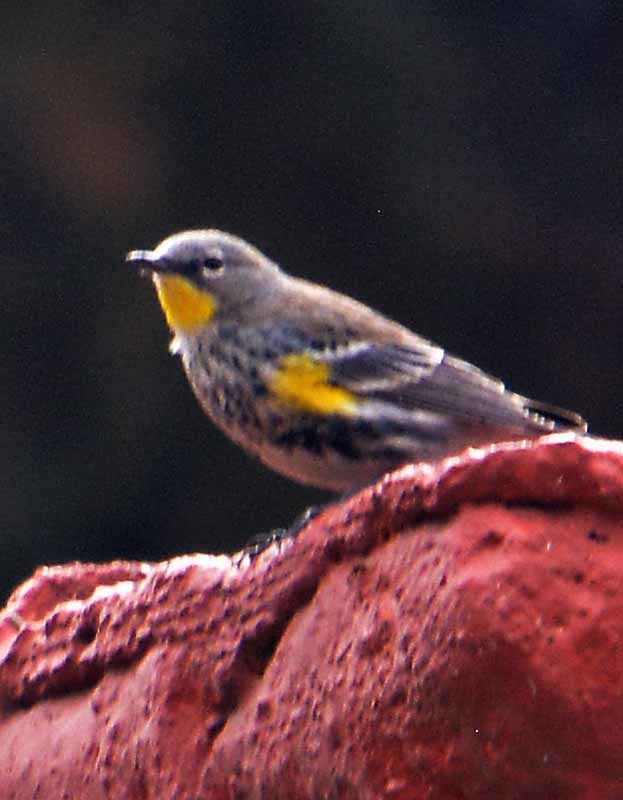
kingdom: Animalia
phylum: Chordata
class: Aves
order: Passeriformes
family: Parulidae
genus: Setophaga
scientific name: Setophaga coronata
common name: Myrtle warbler
